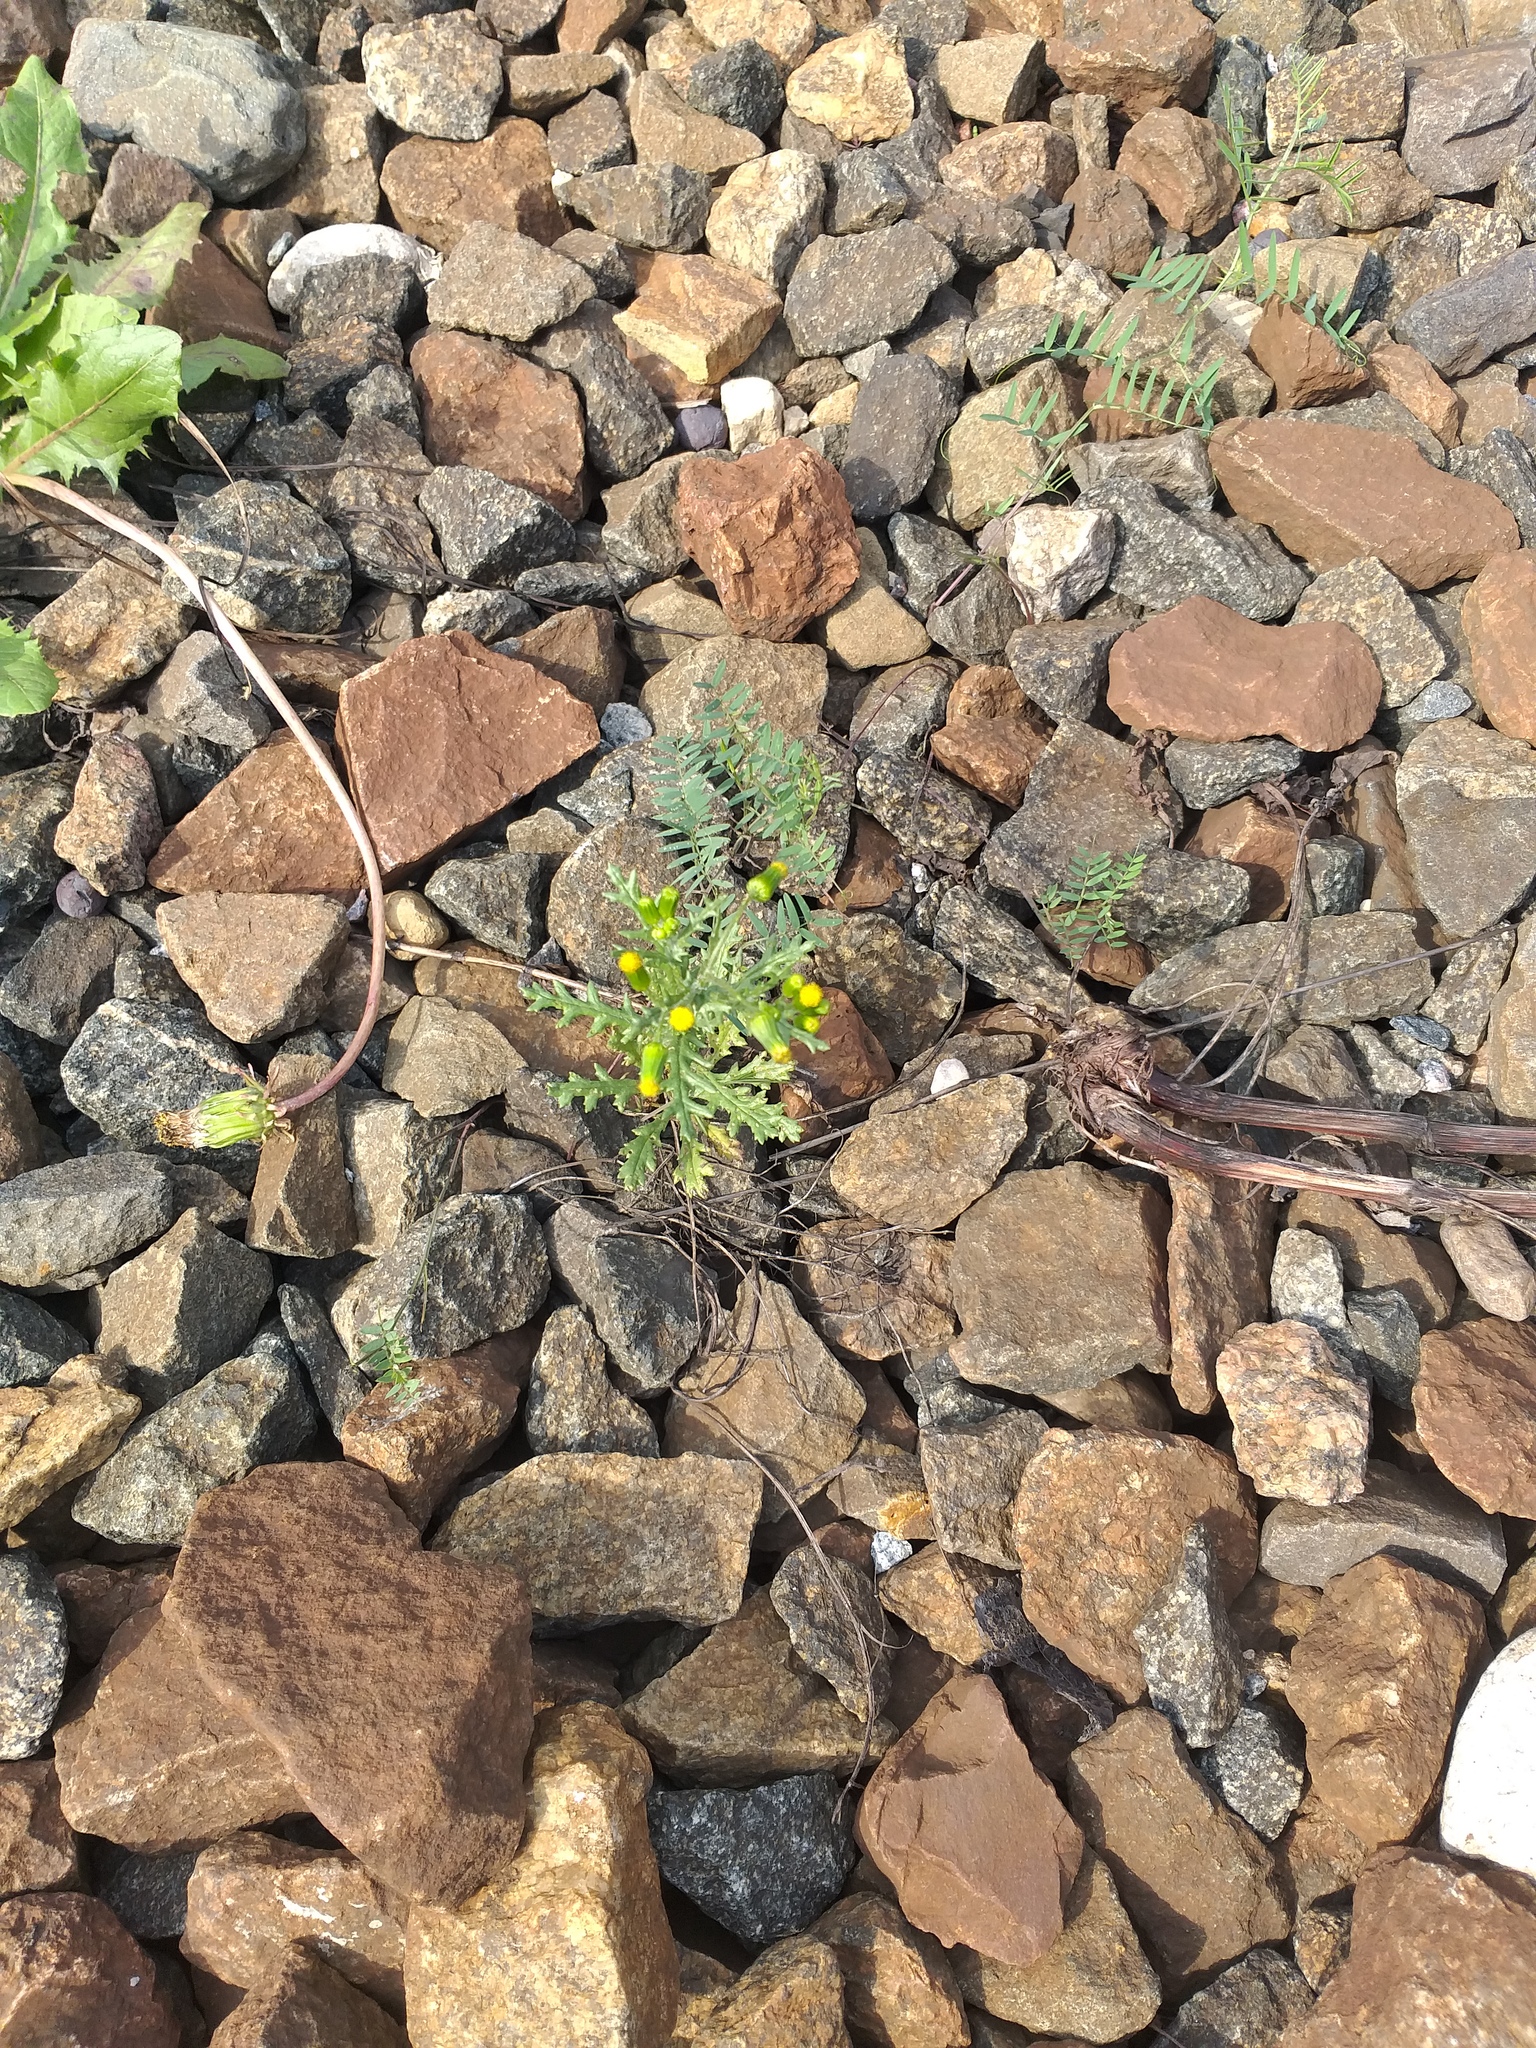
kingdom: Plantae
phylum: Tracheophyta
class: Magnoliopsida
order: Asterales
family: Asteraceae
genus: Senecio
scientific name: Senecio vulgaris
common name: Old-man-in-the-spring
